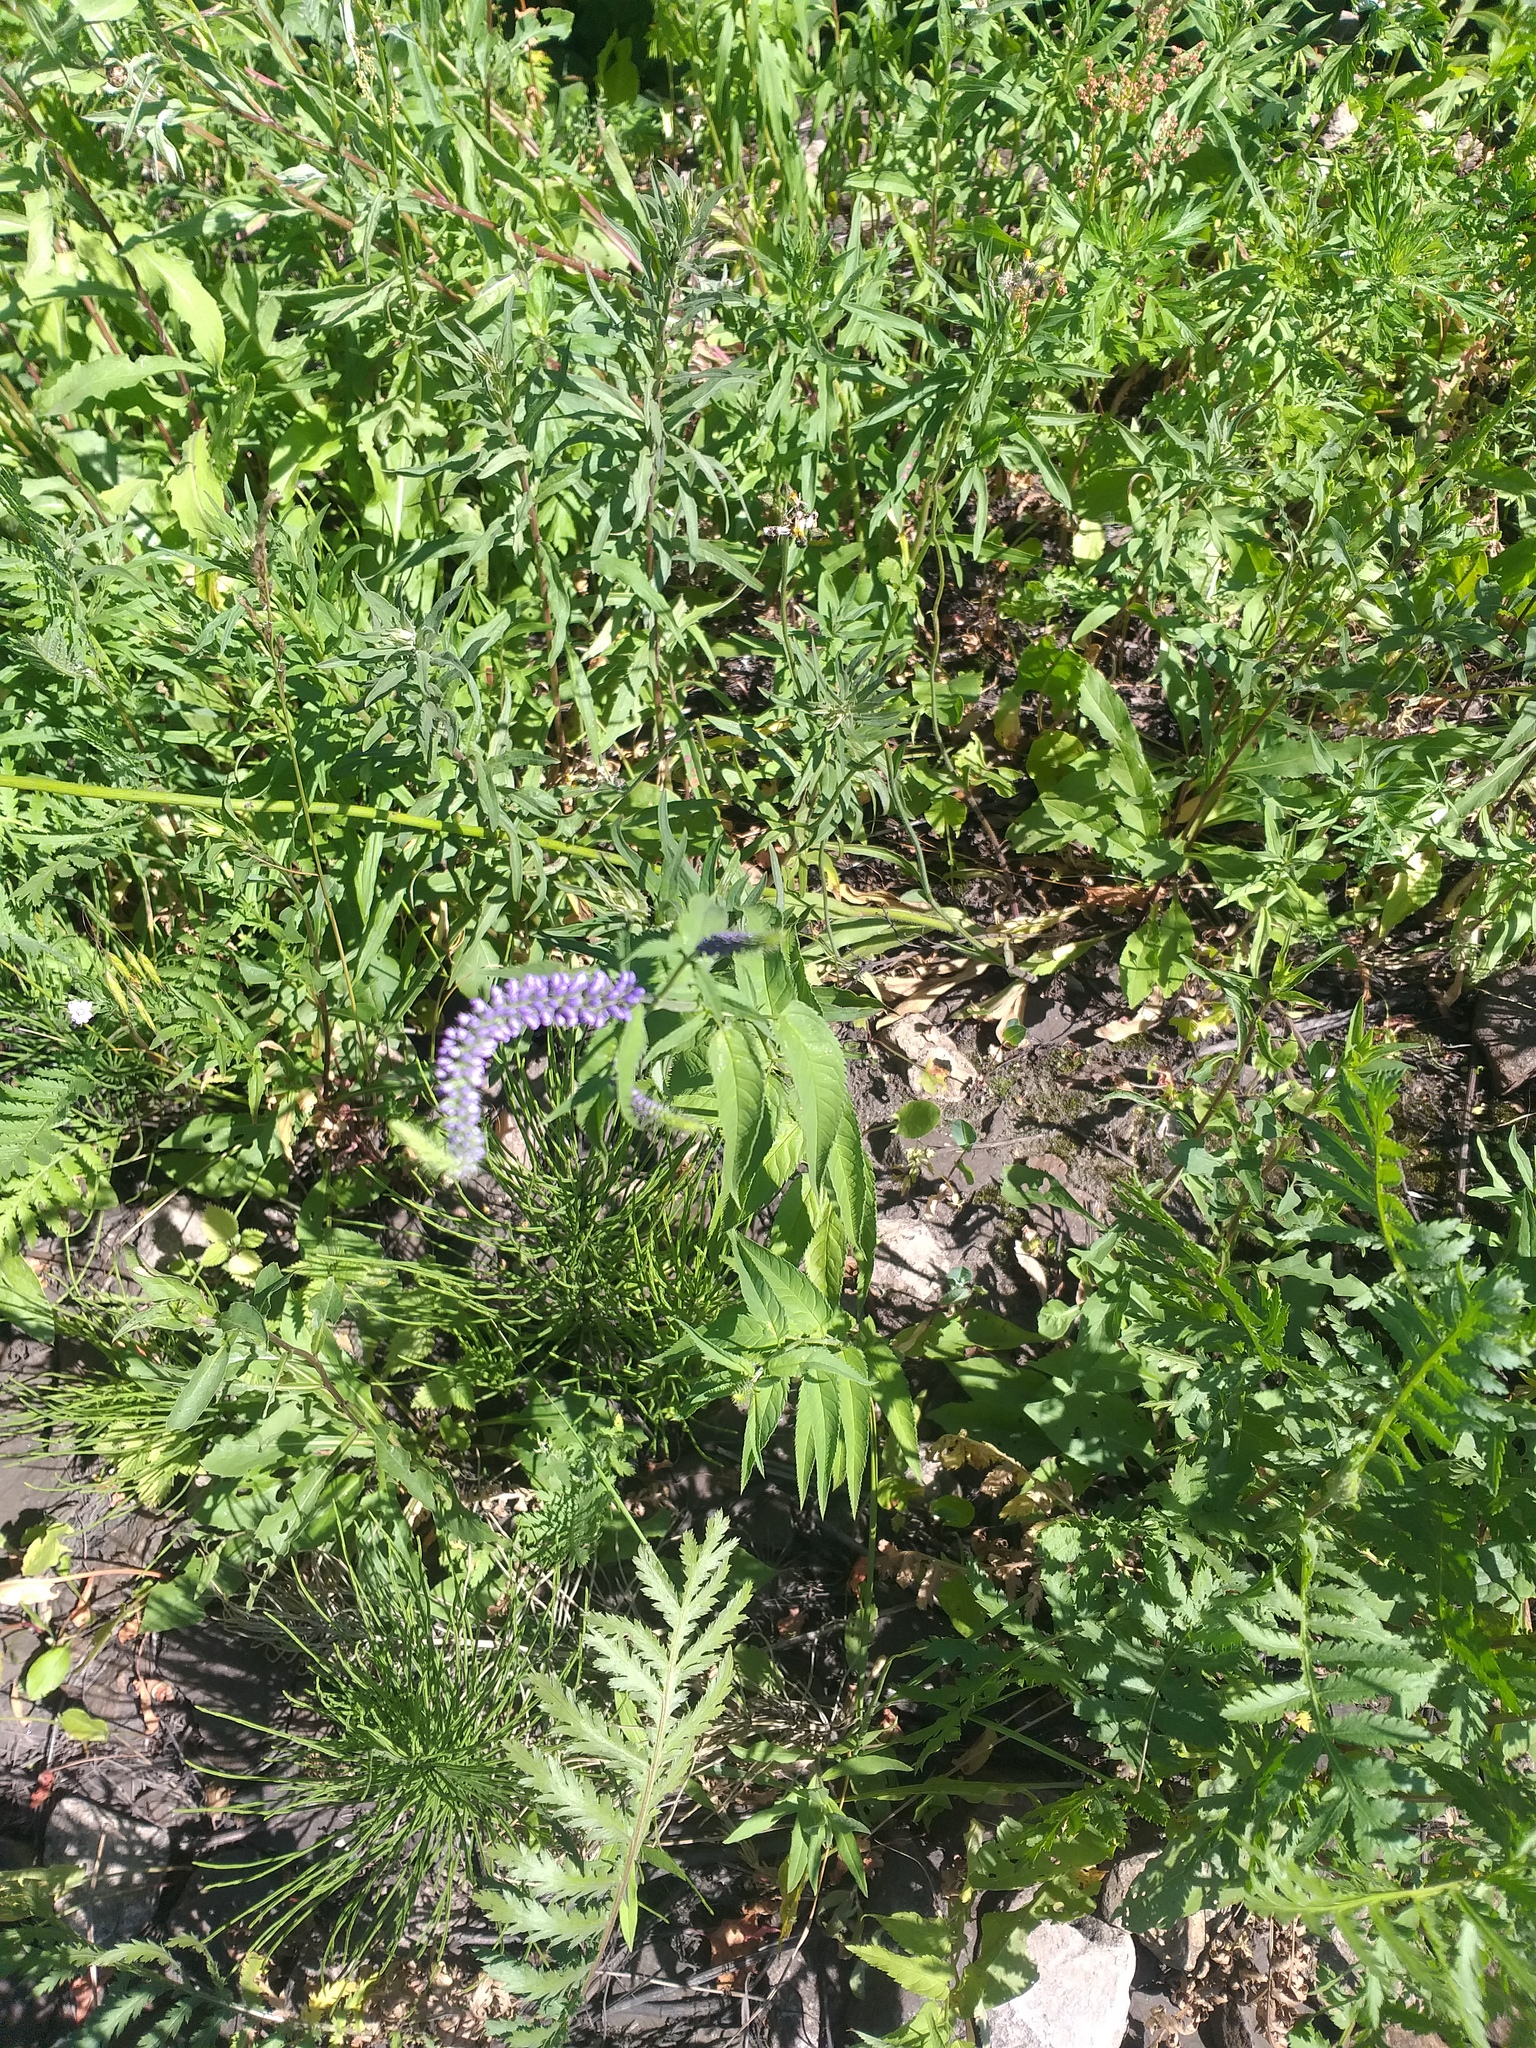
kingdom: Plantae
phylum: Tracheophyta
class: Magnoliopsida
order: Lamiales
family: Plantaginaceae
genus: Veronica
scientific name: Veronica longifolia
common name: Garden speedwell
